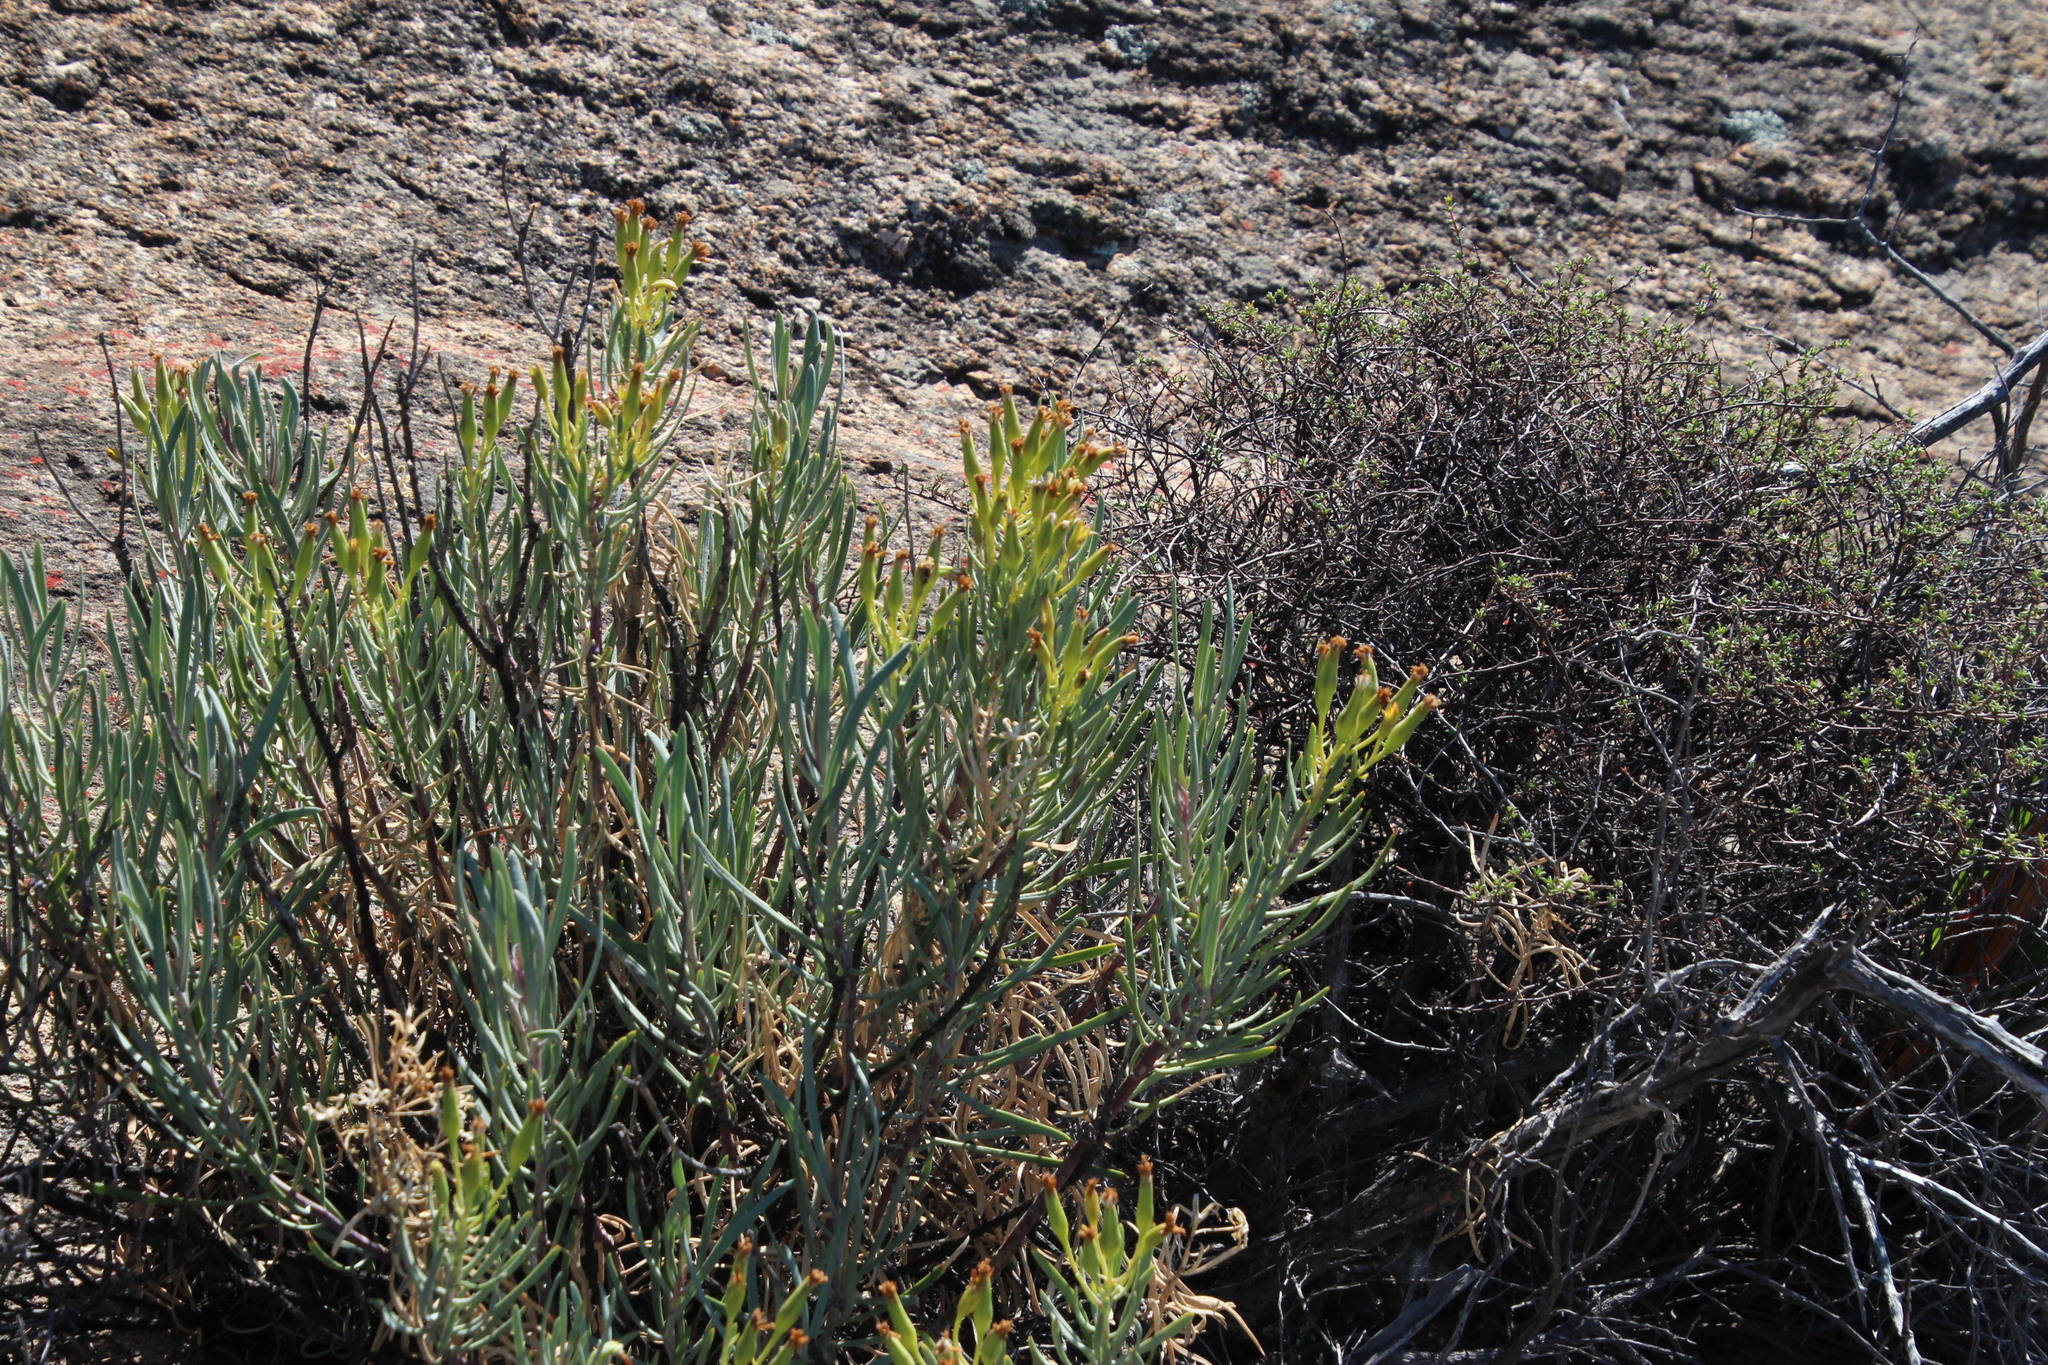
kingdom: Plantae
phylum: Tracheophyta
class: Magnoliopsida
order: Asterales
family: Asteraceae
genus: Curio
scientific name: Curio corymbifer
